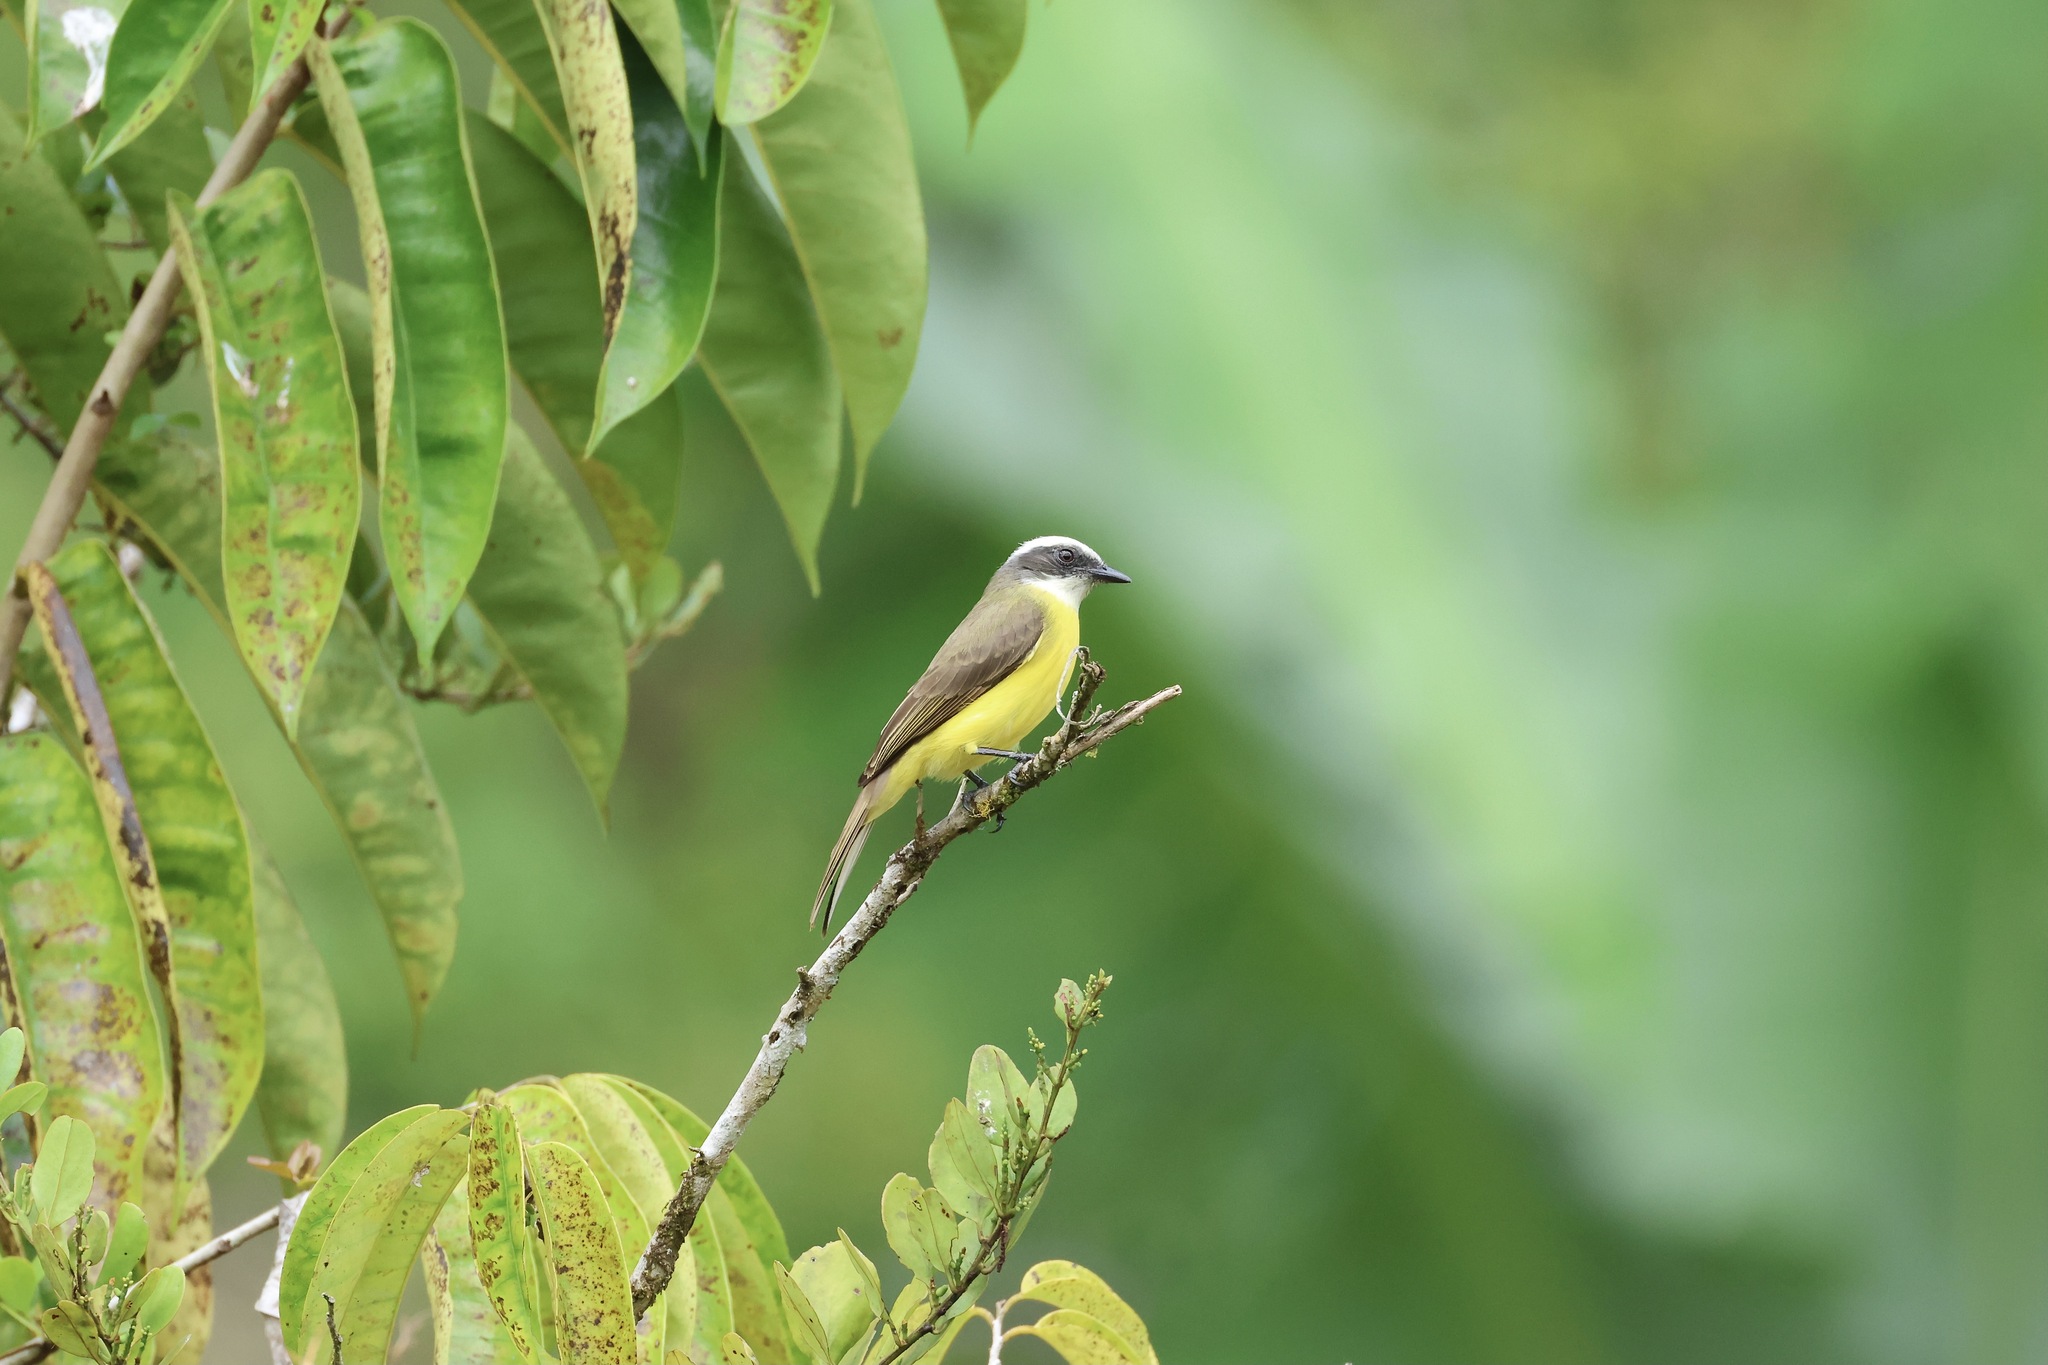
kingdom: Animalia
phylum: Chordata
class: Aves
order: Passeriformes
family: Tyrannidae
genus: Myiozetetes
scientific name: Myiozetetes similis
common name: Social flycatcher
